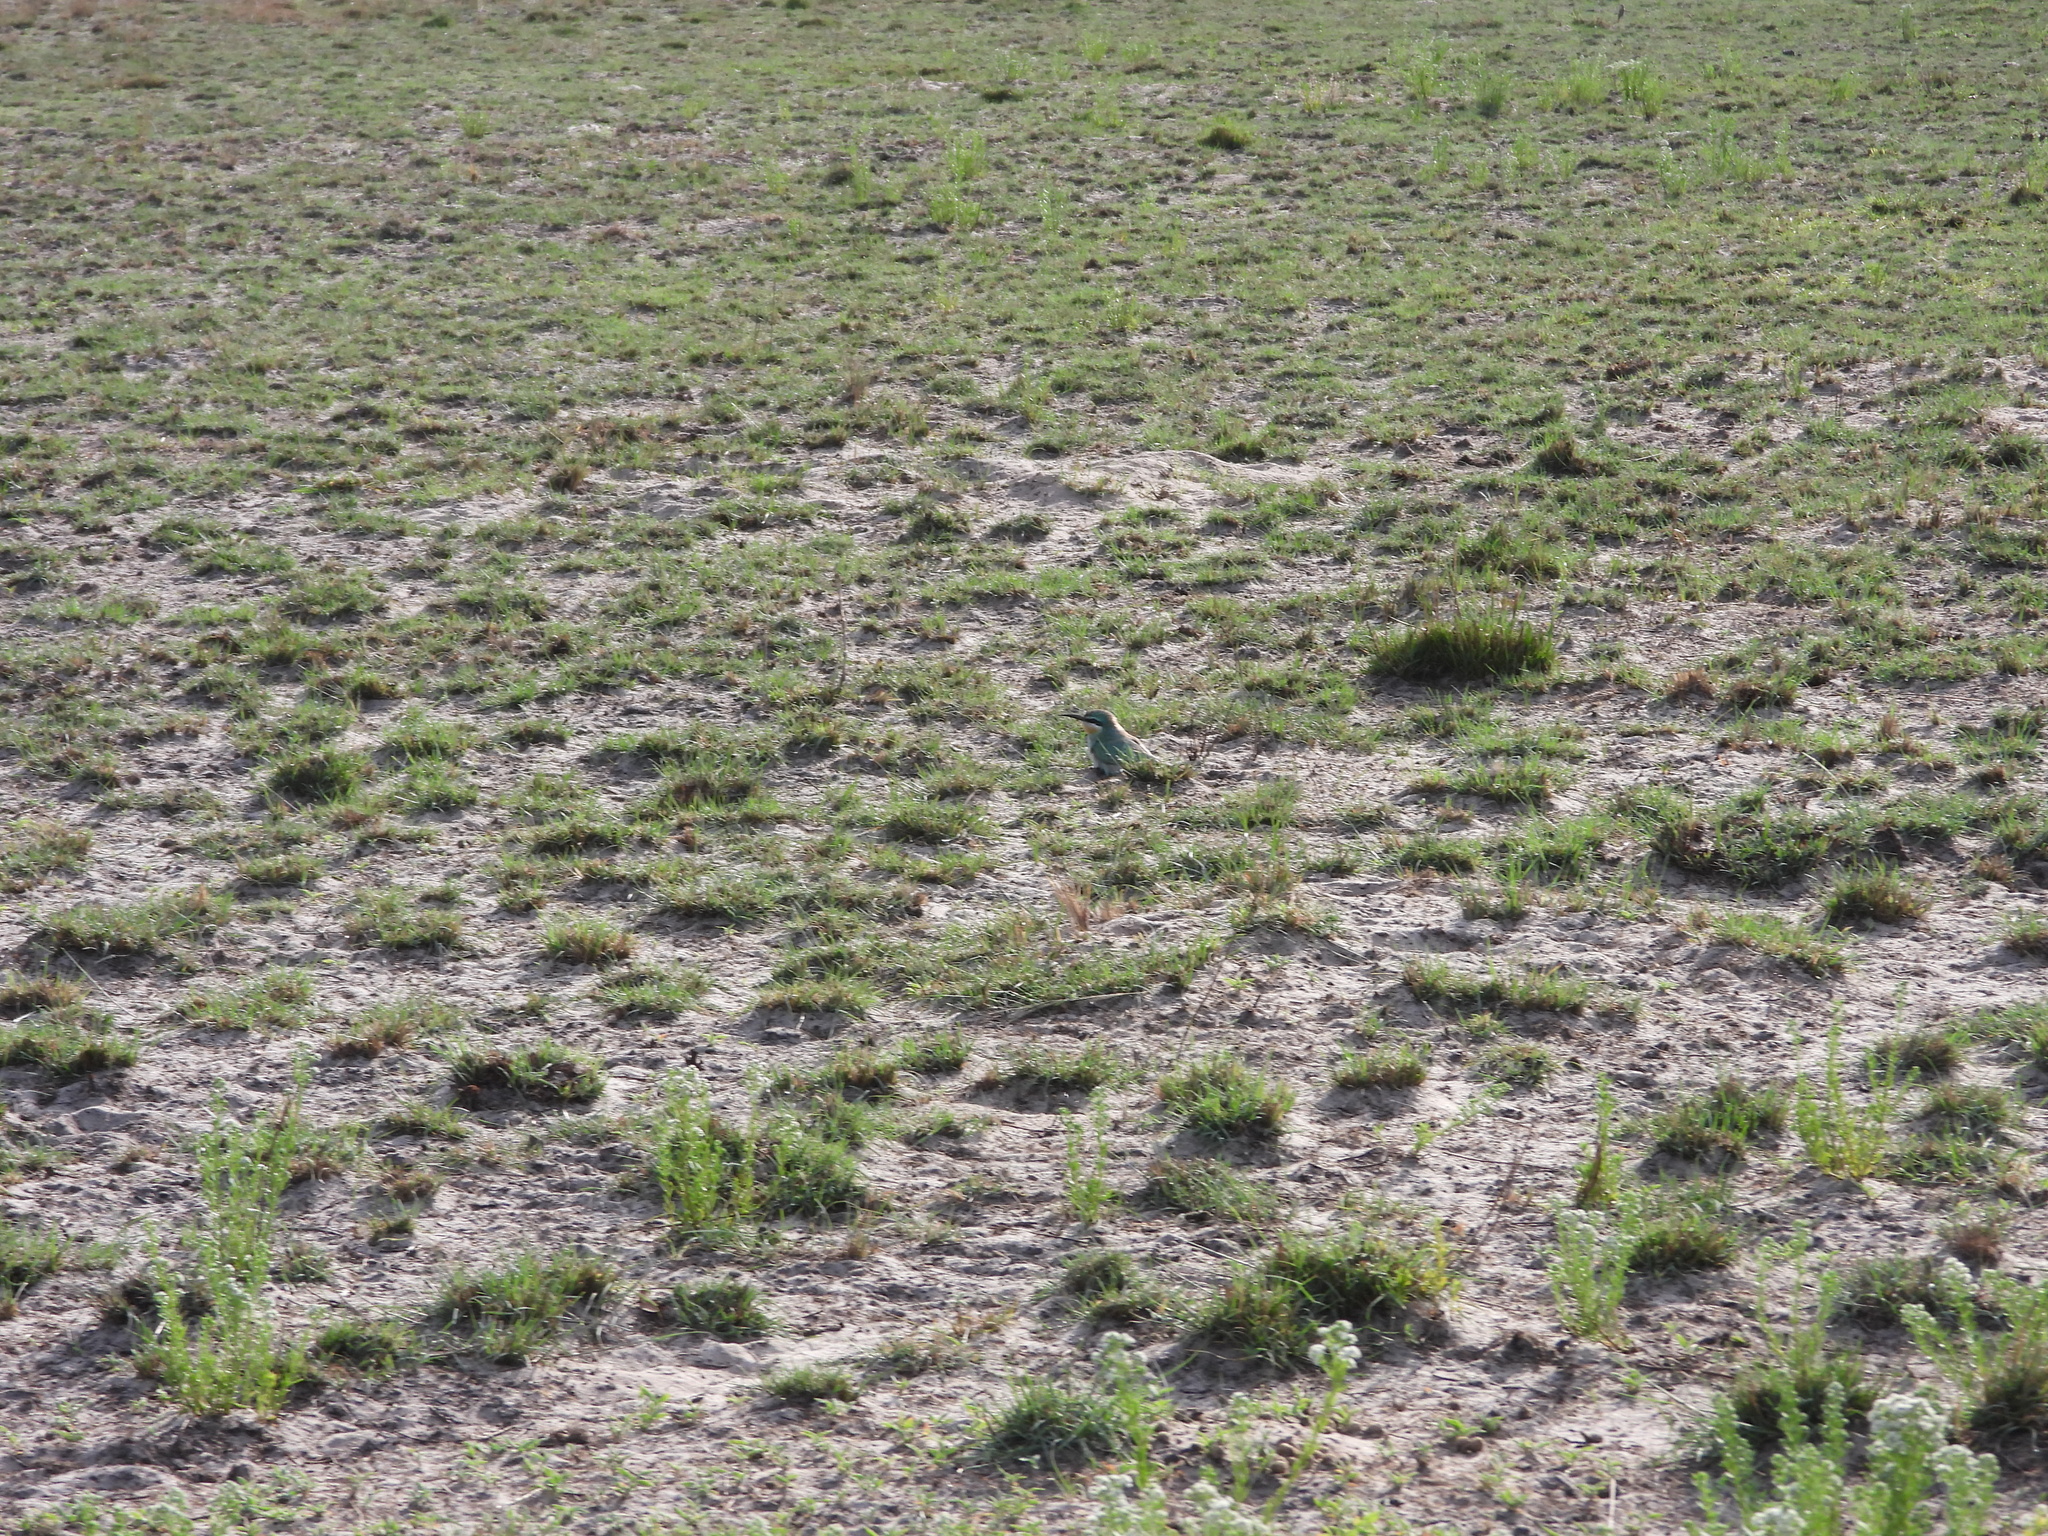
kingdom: Animalia
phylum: Chordata
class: Aves
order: Coraciiformes
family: Meropidae
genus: Merops
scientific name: Merops persicus
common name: Blue-cheeked bee-eater
